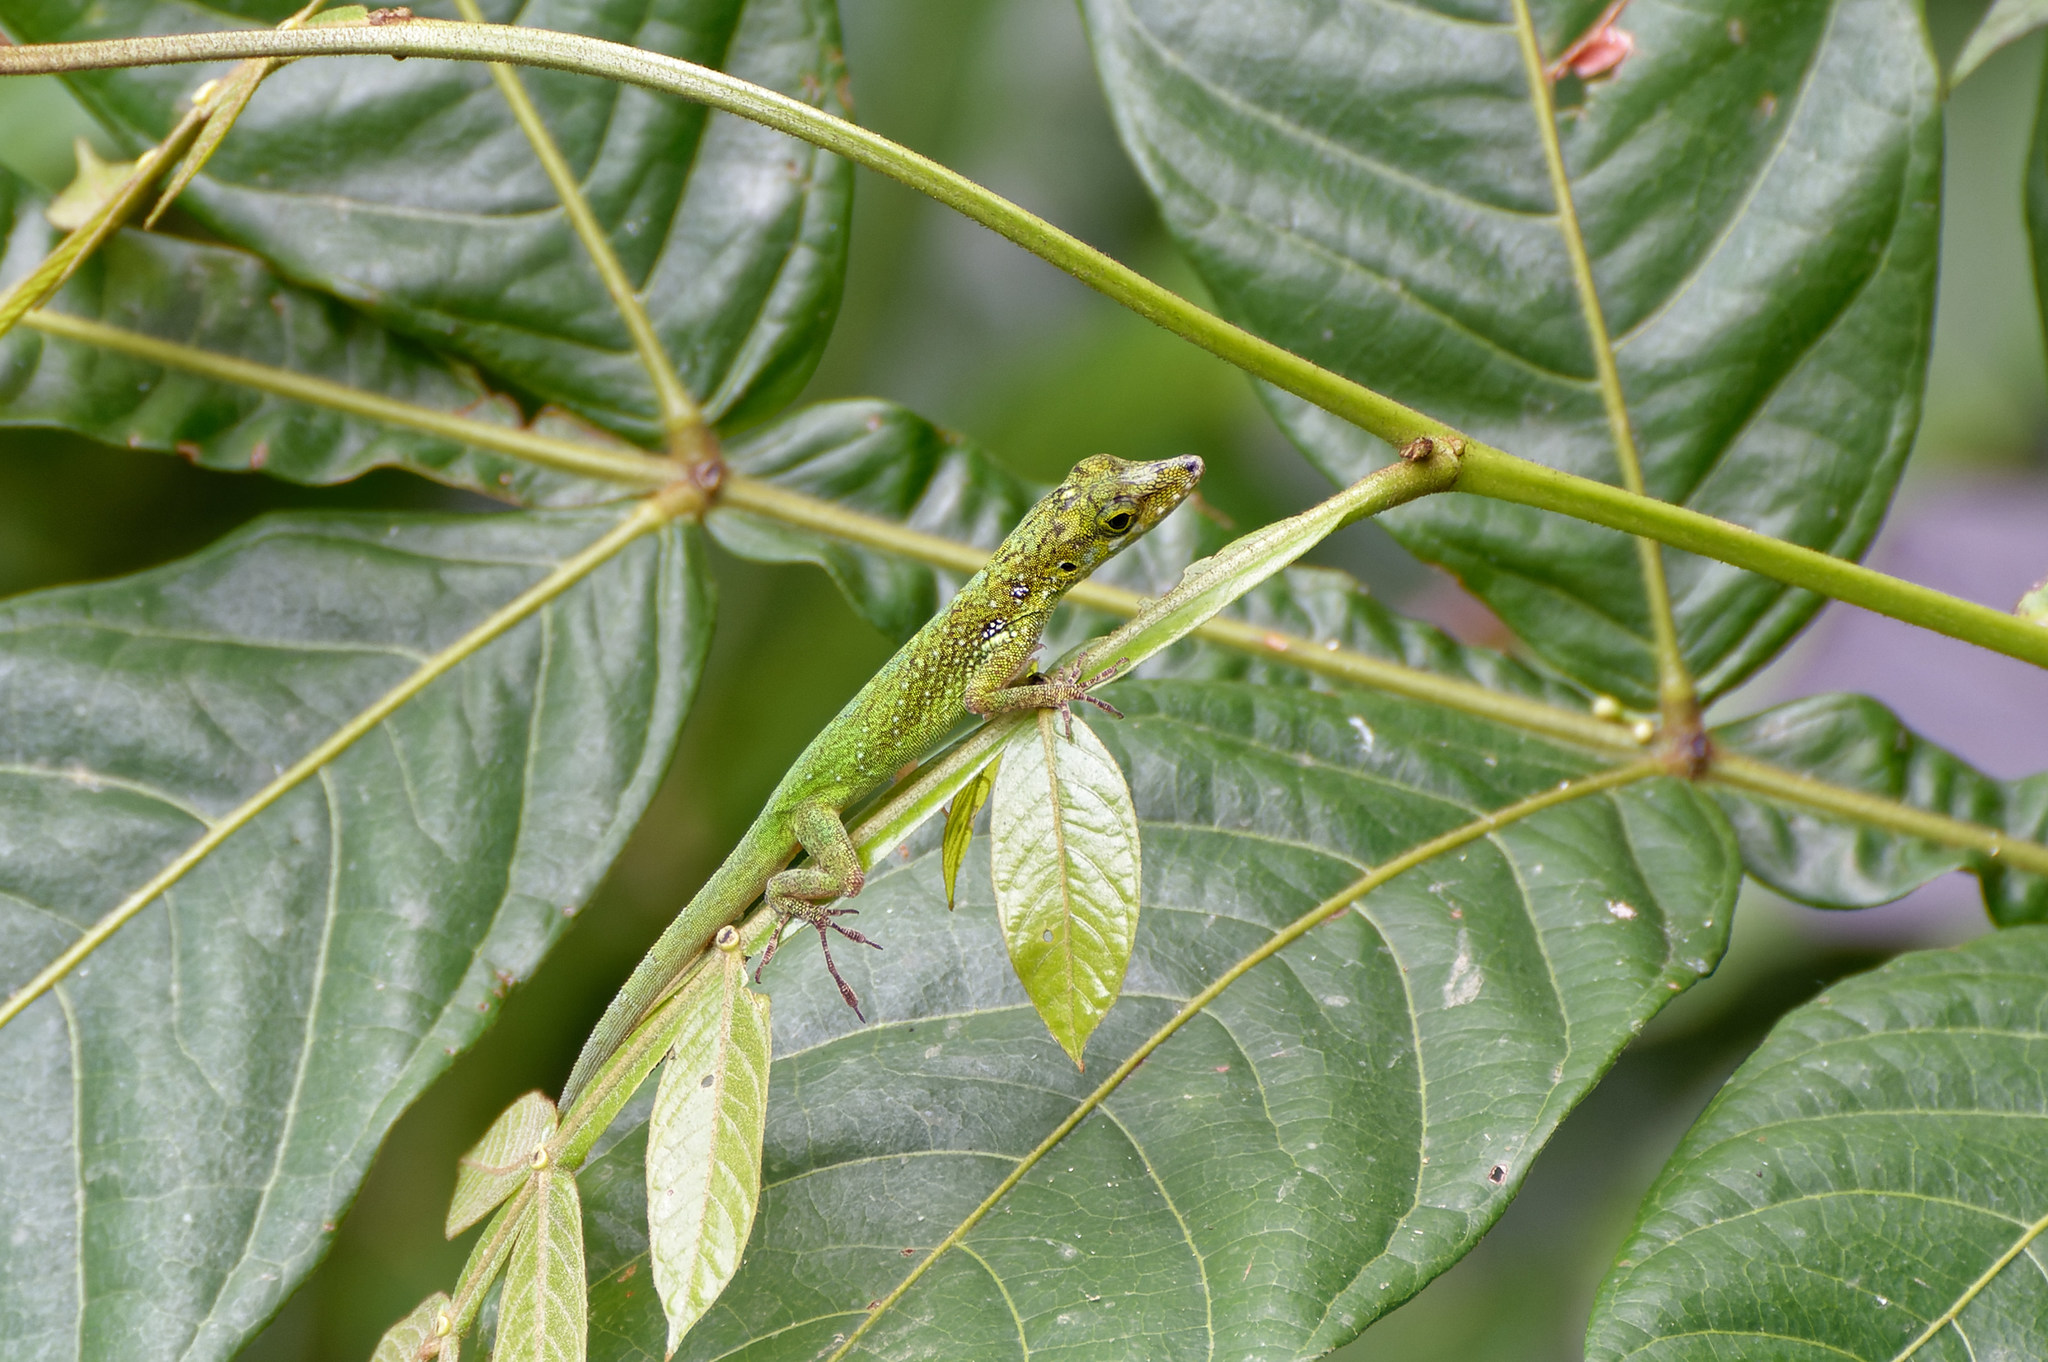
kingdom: Animalia
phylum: Chordata
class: Squamata
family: Dactyloidae
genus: Anolis
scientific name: Anolis roquet
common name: Martinique anole
